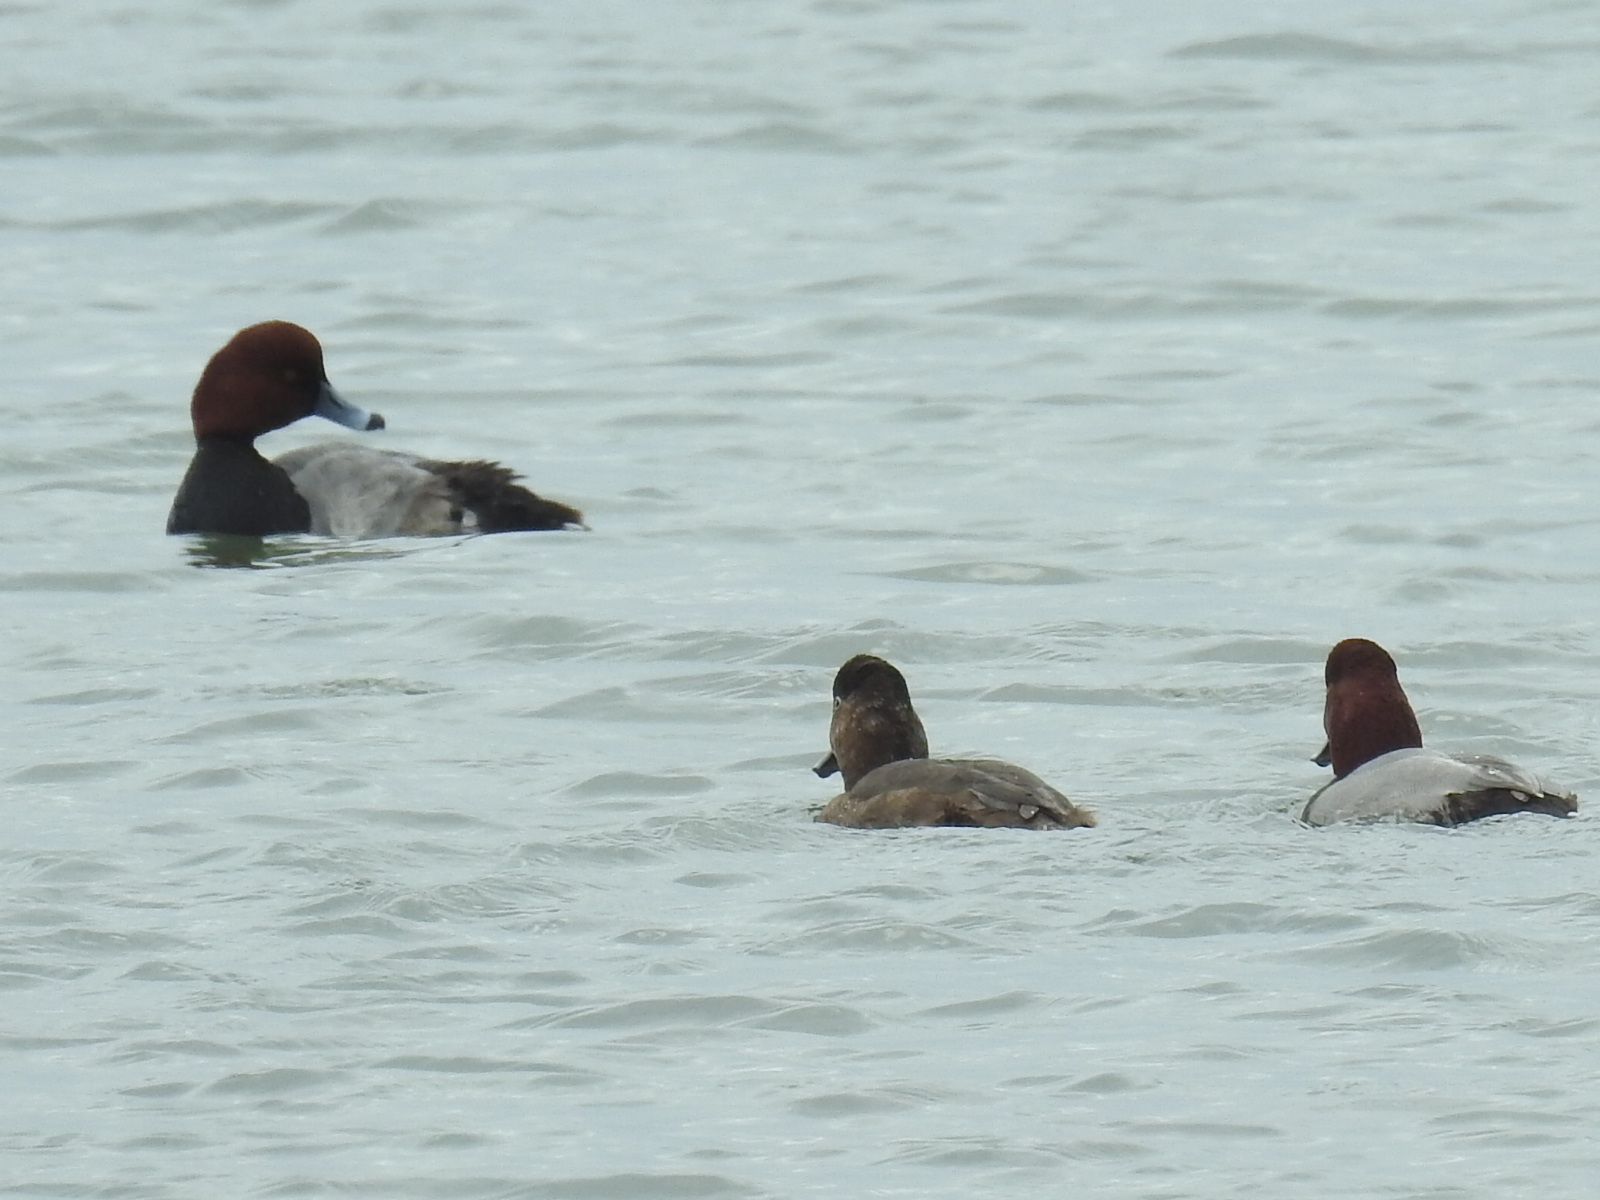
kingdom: Animalia
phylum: Chordata
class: Aves
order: Anseriformes
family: Anatidae
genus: Aythya
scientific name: Aythya americana
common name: Redhead
